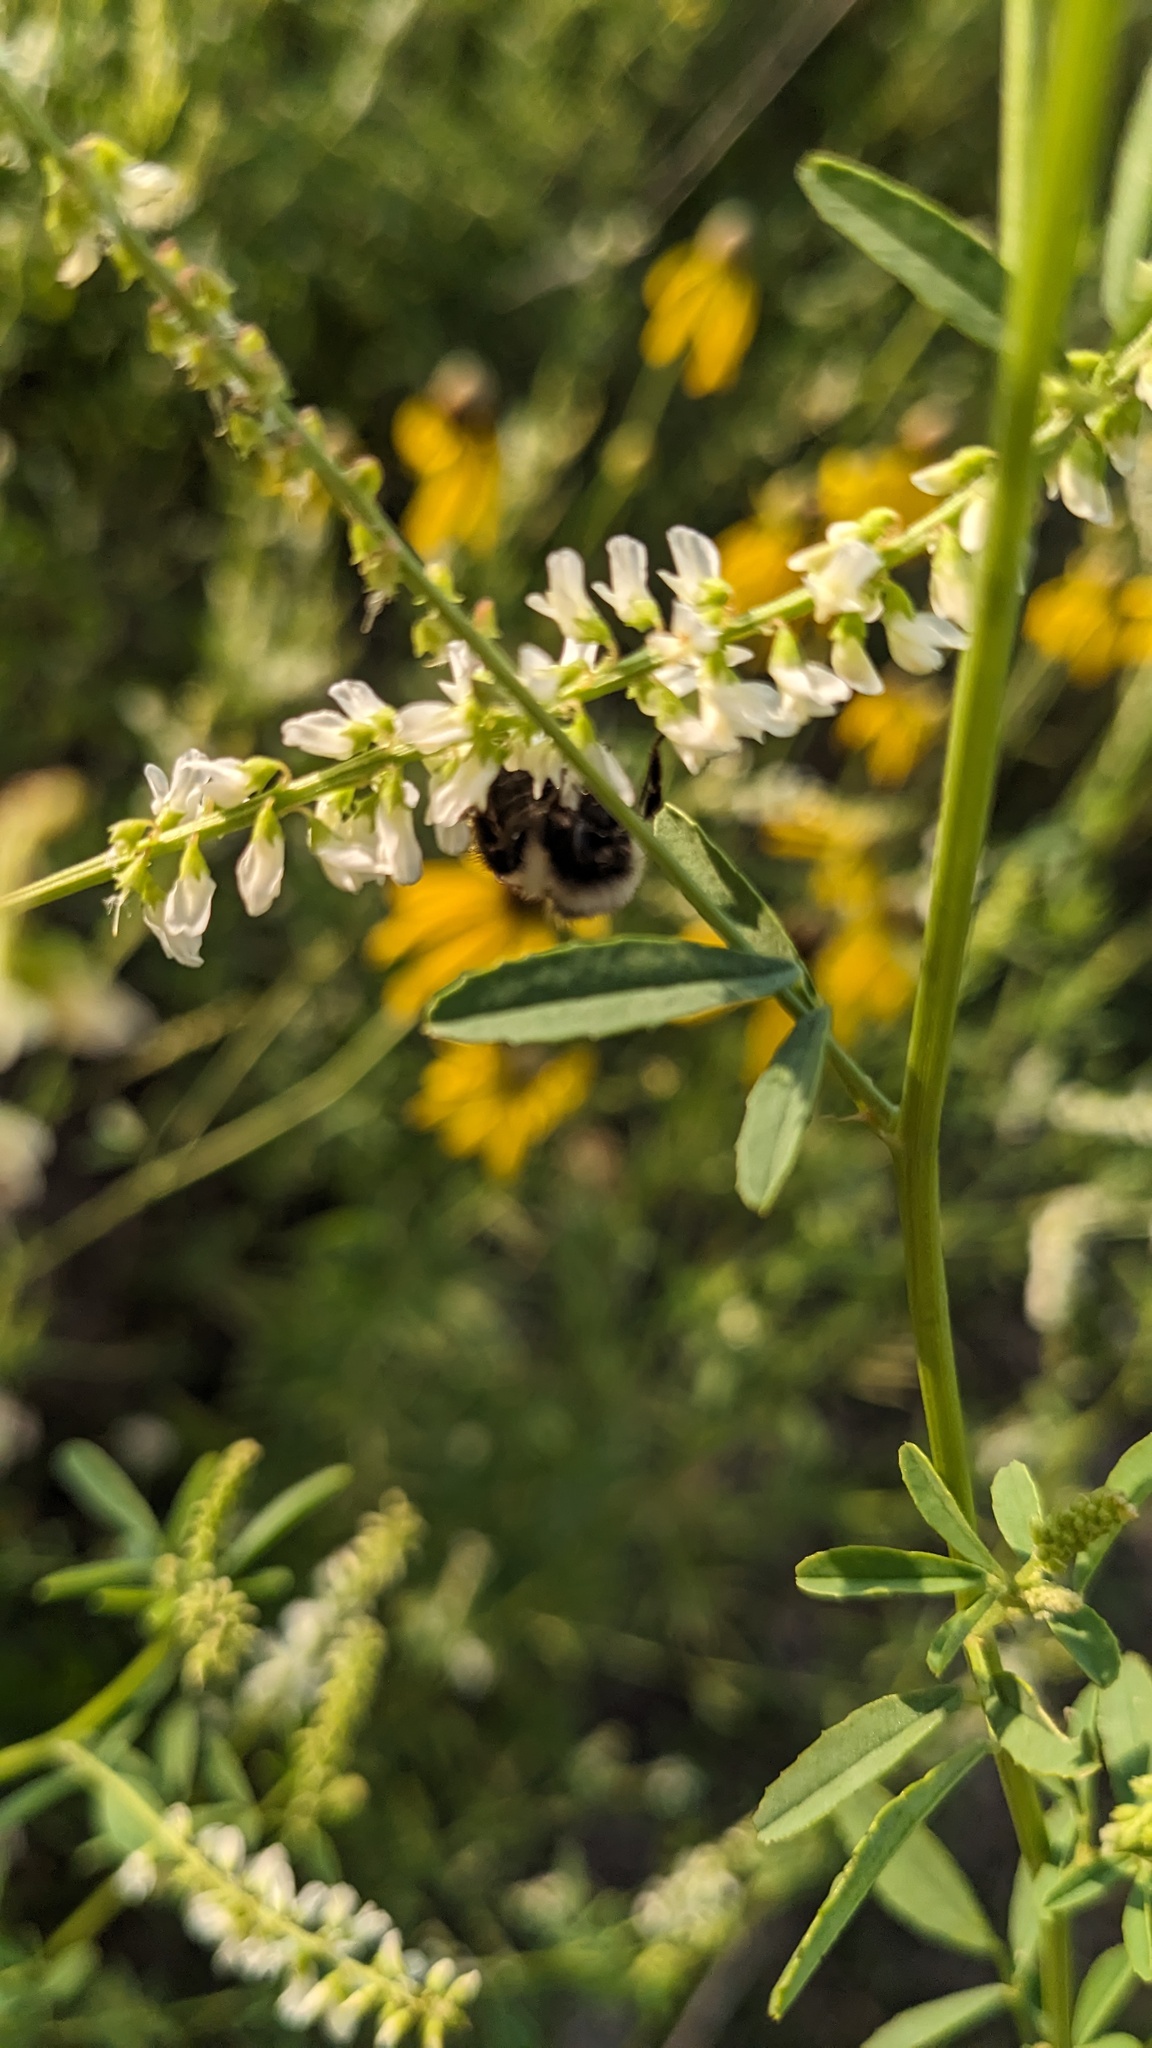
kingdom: Plantae
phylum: Tracheophyta
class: Magnoliopsida
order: Fabales
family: Fabaceae
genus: Melilotus
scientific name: Melilotus albus
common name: White melilot
